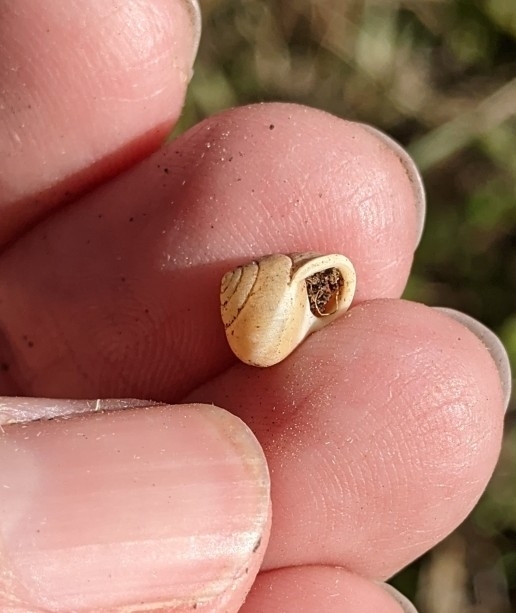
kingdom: Animalia
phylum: Mollusca
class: Gastropoda
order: Cycloneritida
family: Helicinidae
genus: Helicina
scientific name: Helicina orbiculata
